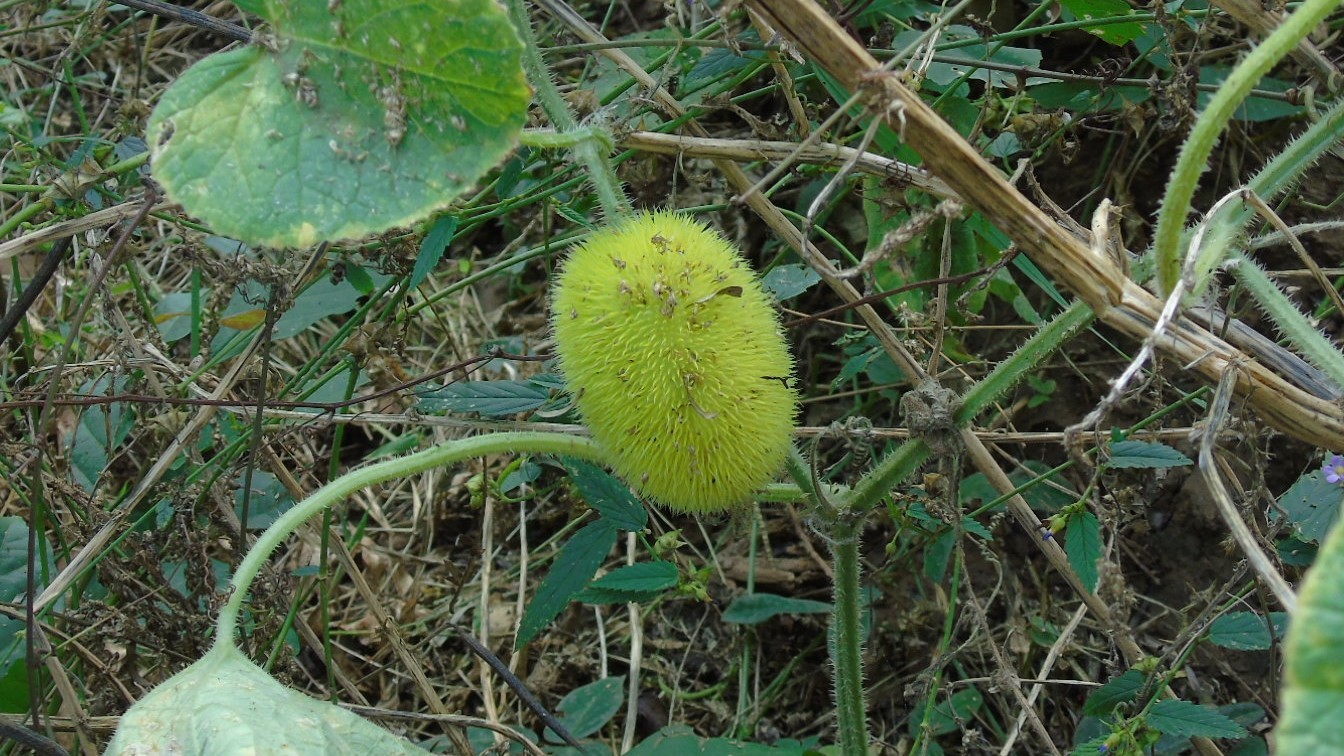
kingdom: Plantae
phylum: Tracheophyta
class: Magnoliopsida
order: Cucurbitales
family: Cucurbitaceae
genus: Cucumis
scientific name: Cucumis dipsaceus
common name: Hedgehog gourd
